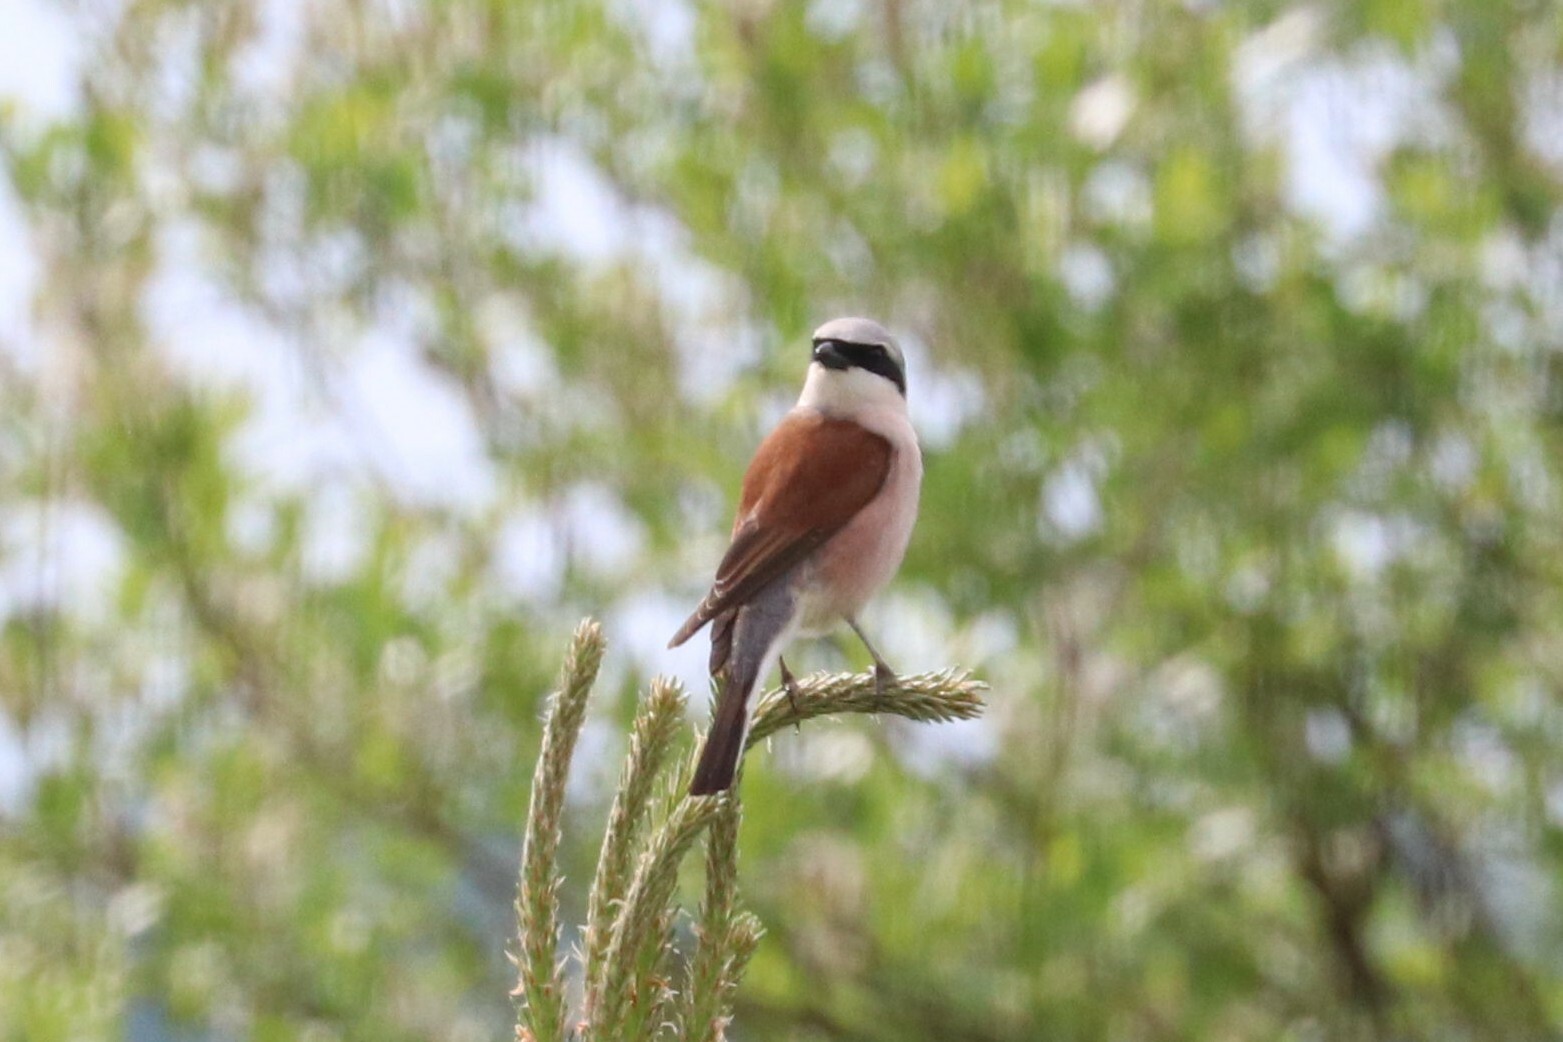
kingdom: Animalia
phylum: Chordata
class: Aves
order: Passeriformes
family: Laniidae
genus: Lanius
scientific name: Lanius collurio
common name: Red-backed shrike
